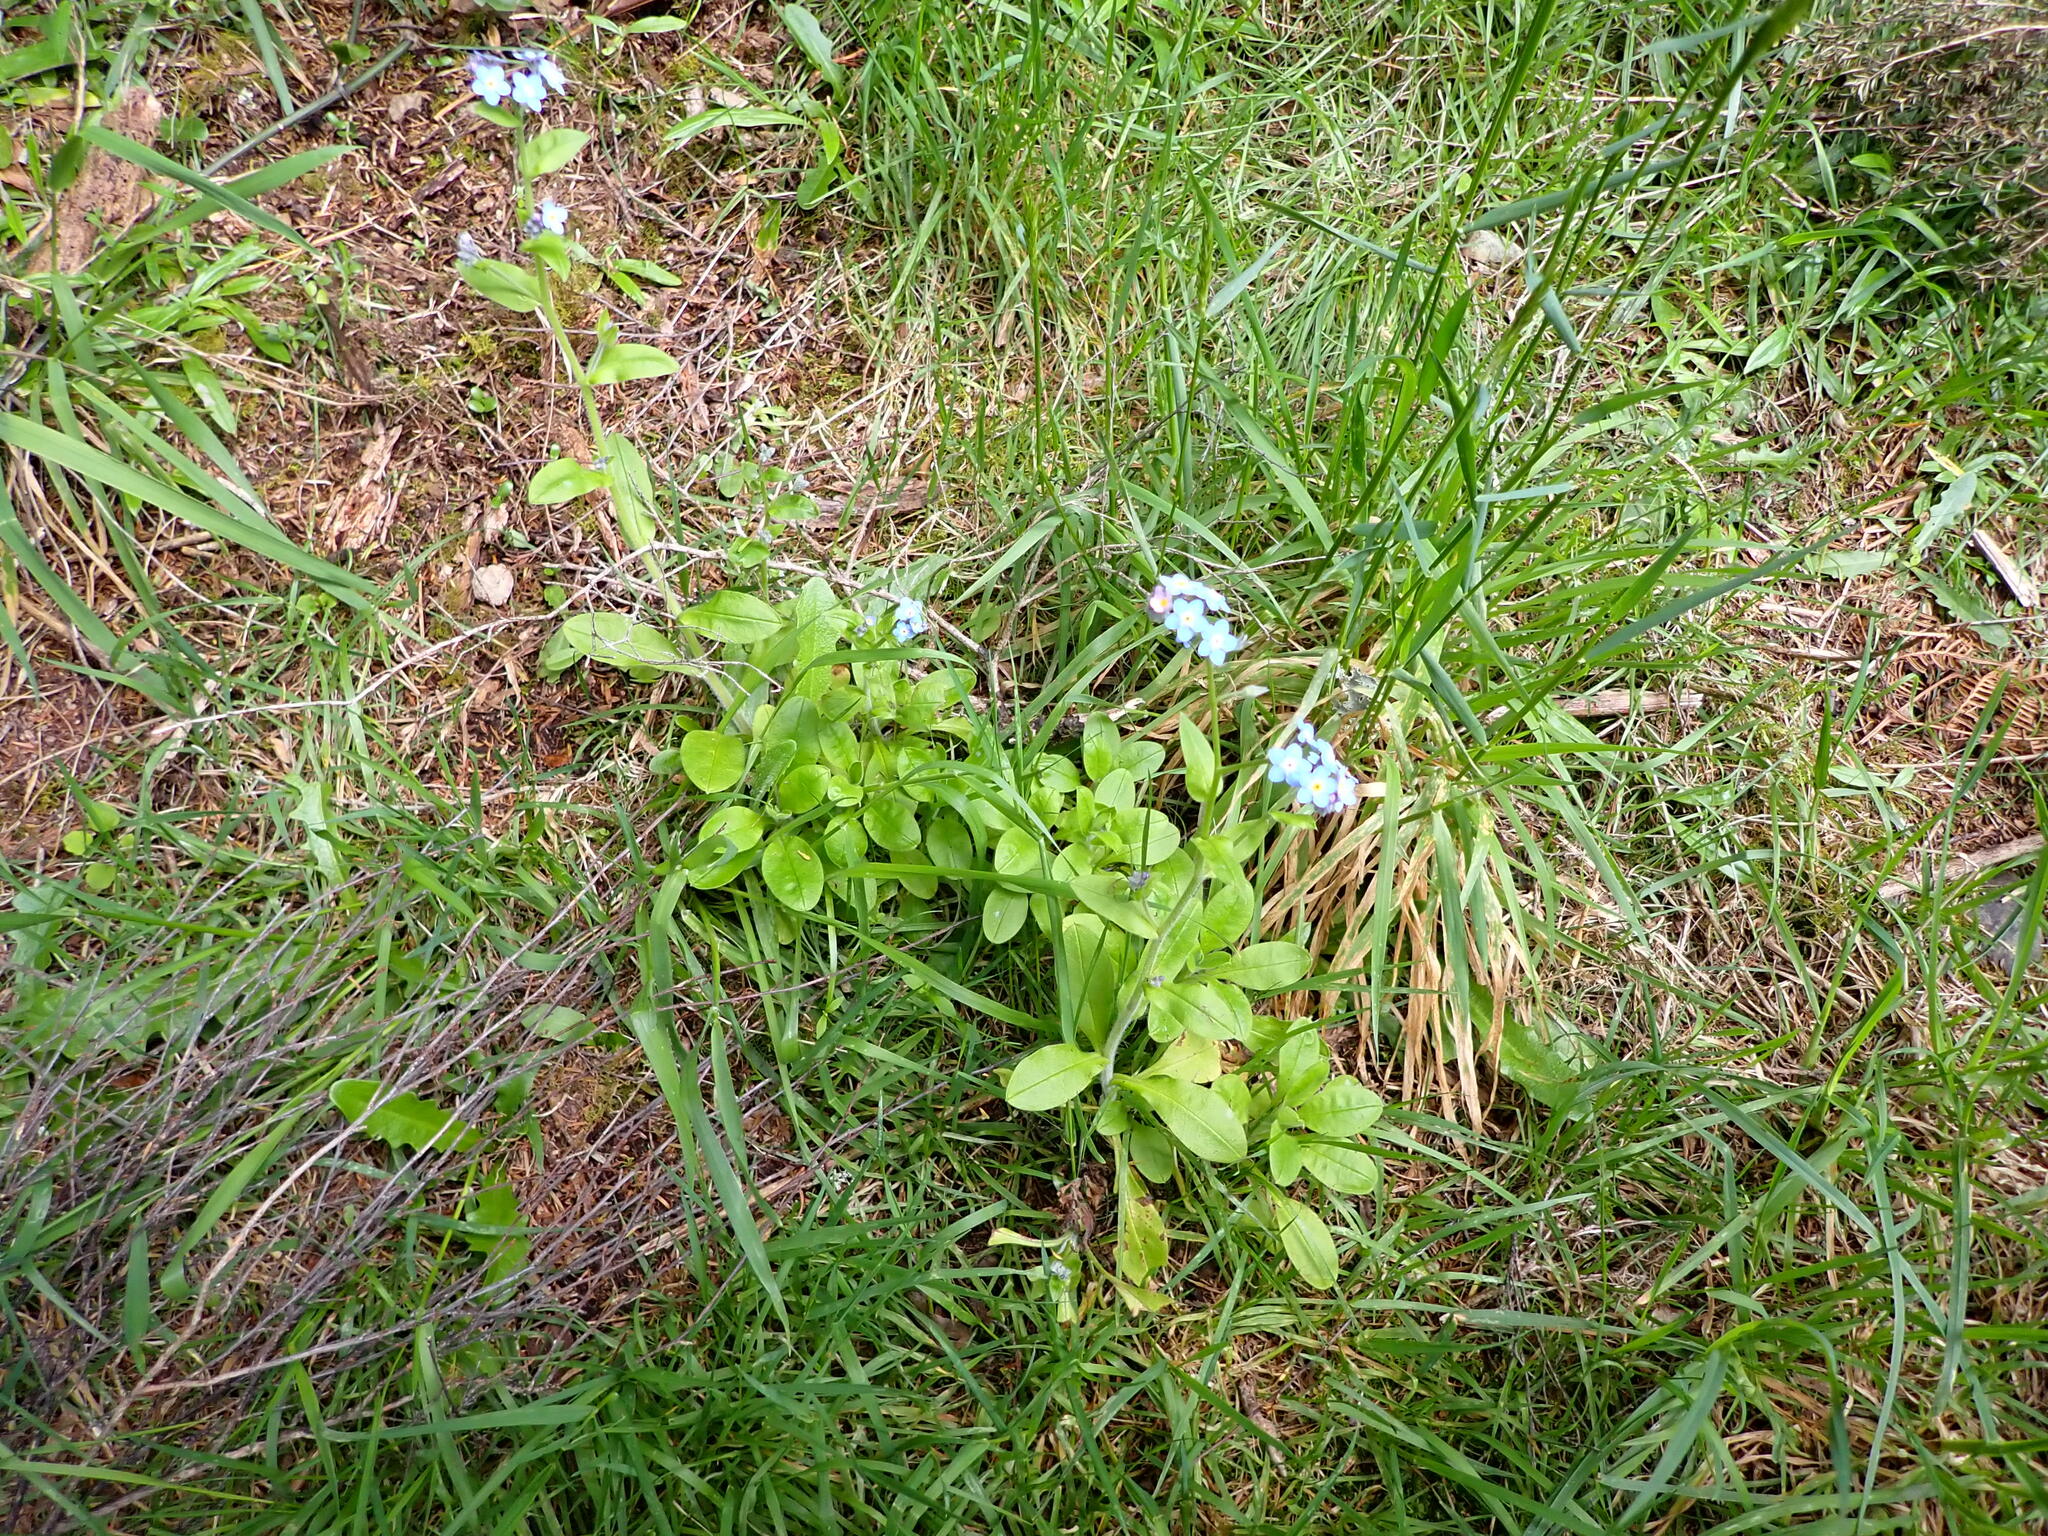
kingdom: Plantae
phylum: Tracheophyta
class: Magnoliopsida
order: Boraginales
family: Boraginaceae
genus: Myosotis
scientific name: Myosotis sylvatica
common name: Wood forget-me-not
